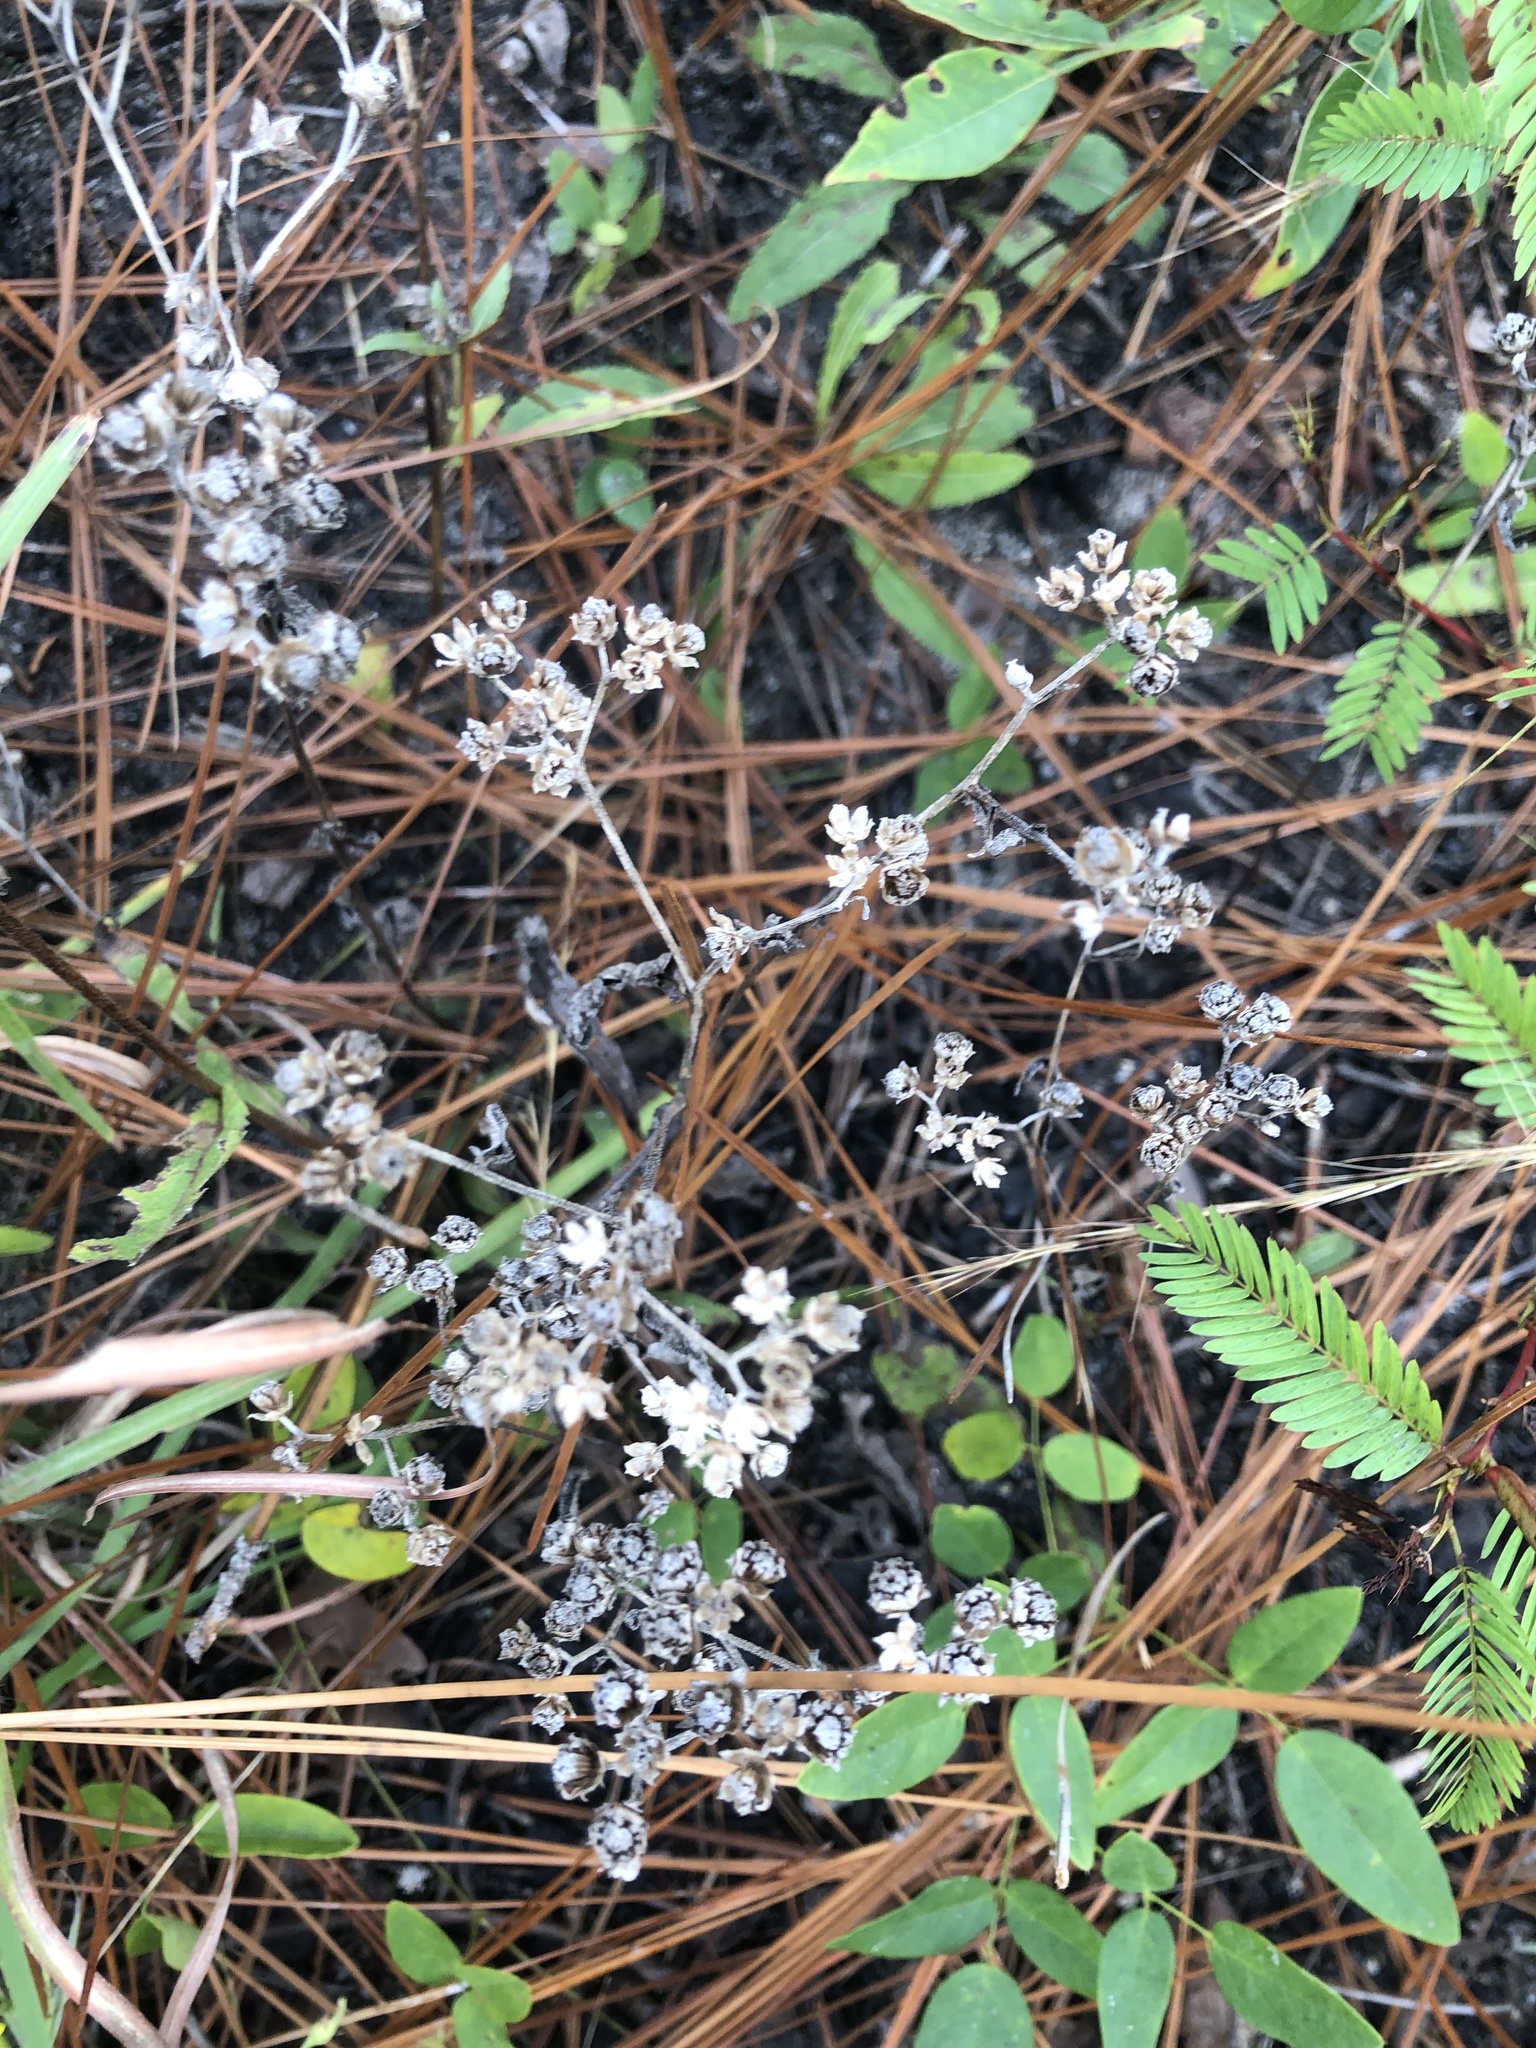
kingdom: Plantae
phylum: Tracheophyta
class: Magnoliopsida
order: Asterales
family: Asteraceae
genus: Parthenium
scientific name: Parthenium integrifolium
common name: American feverfew
